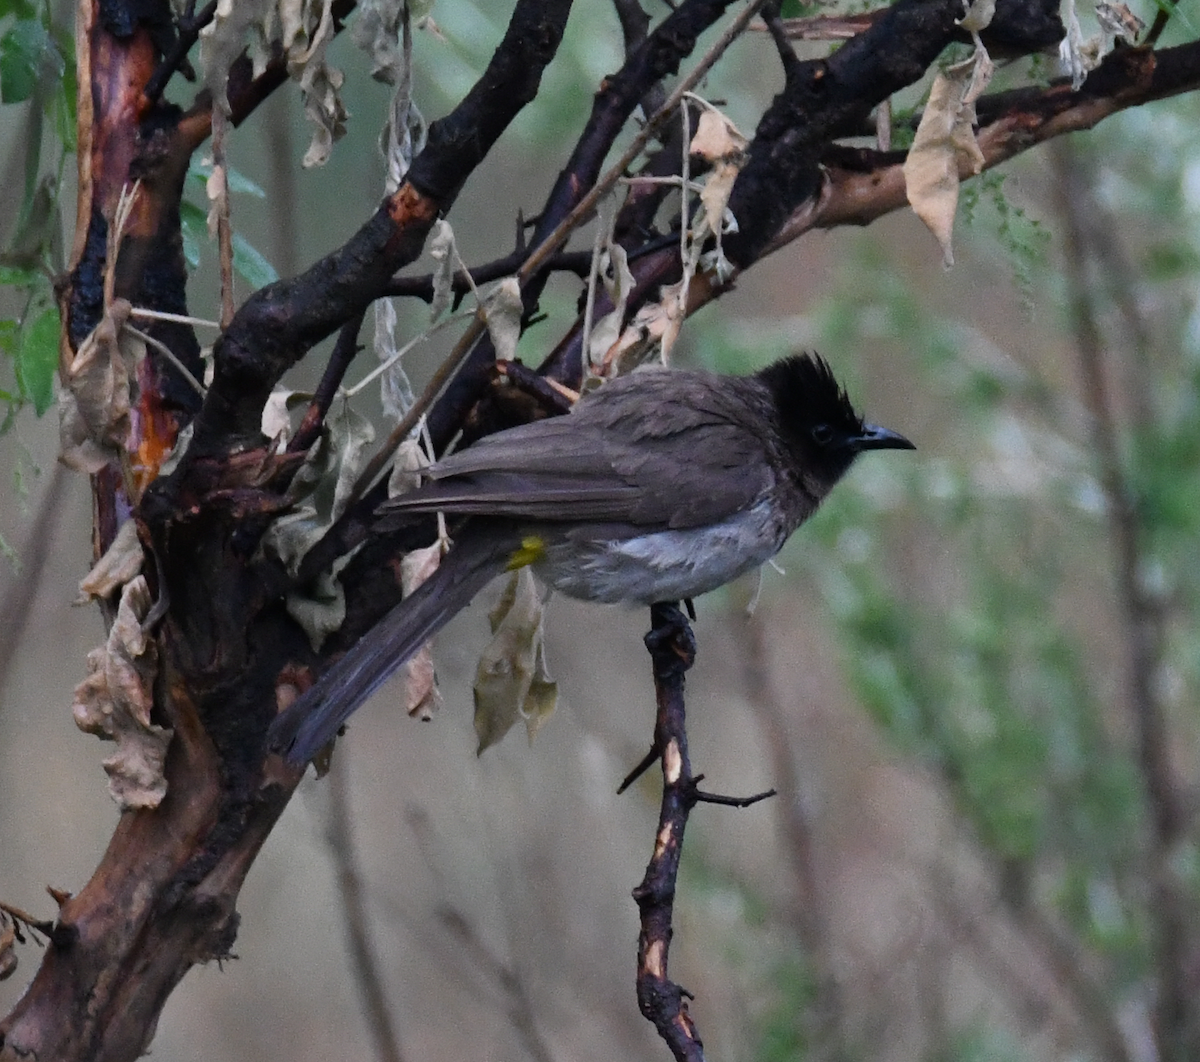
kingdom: Animalia
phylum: Chordata
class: Aves
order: Passeriformes
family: Pycnonotidae
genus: Pycnonotus
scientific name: Pycnonotus barbatus
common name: Common bulbul
